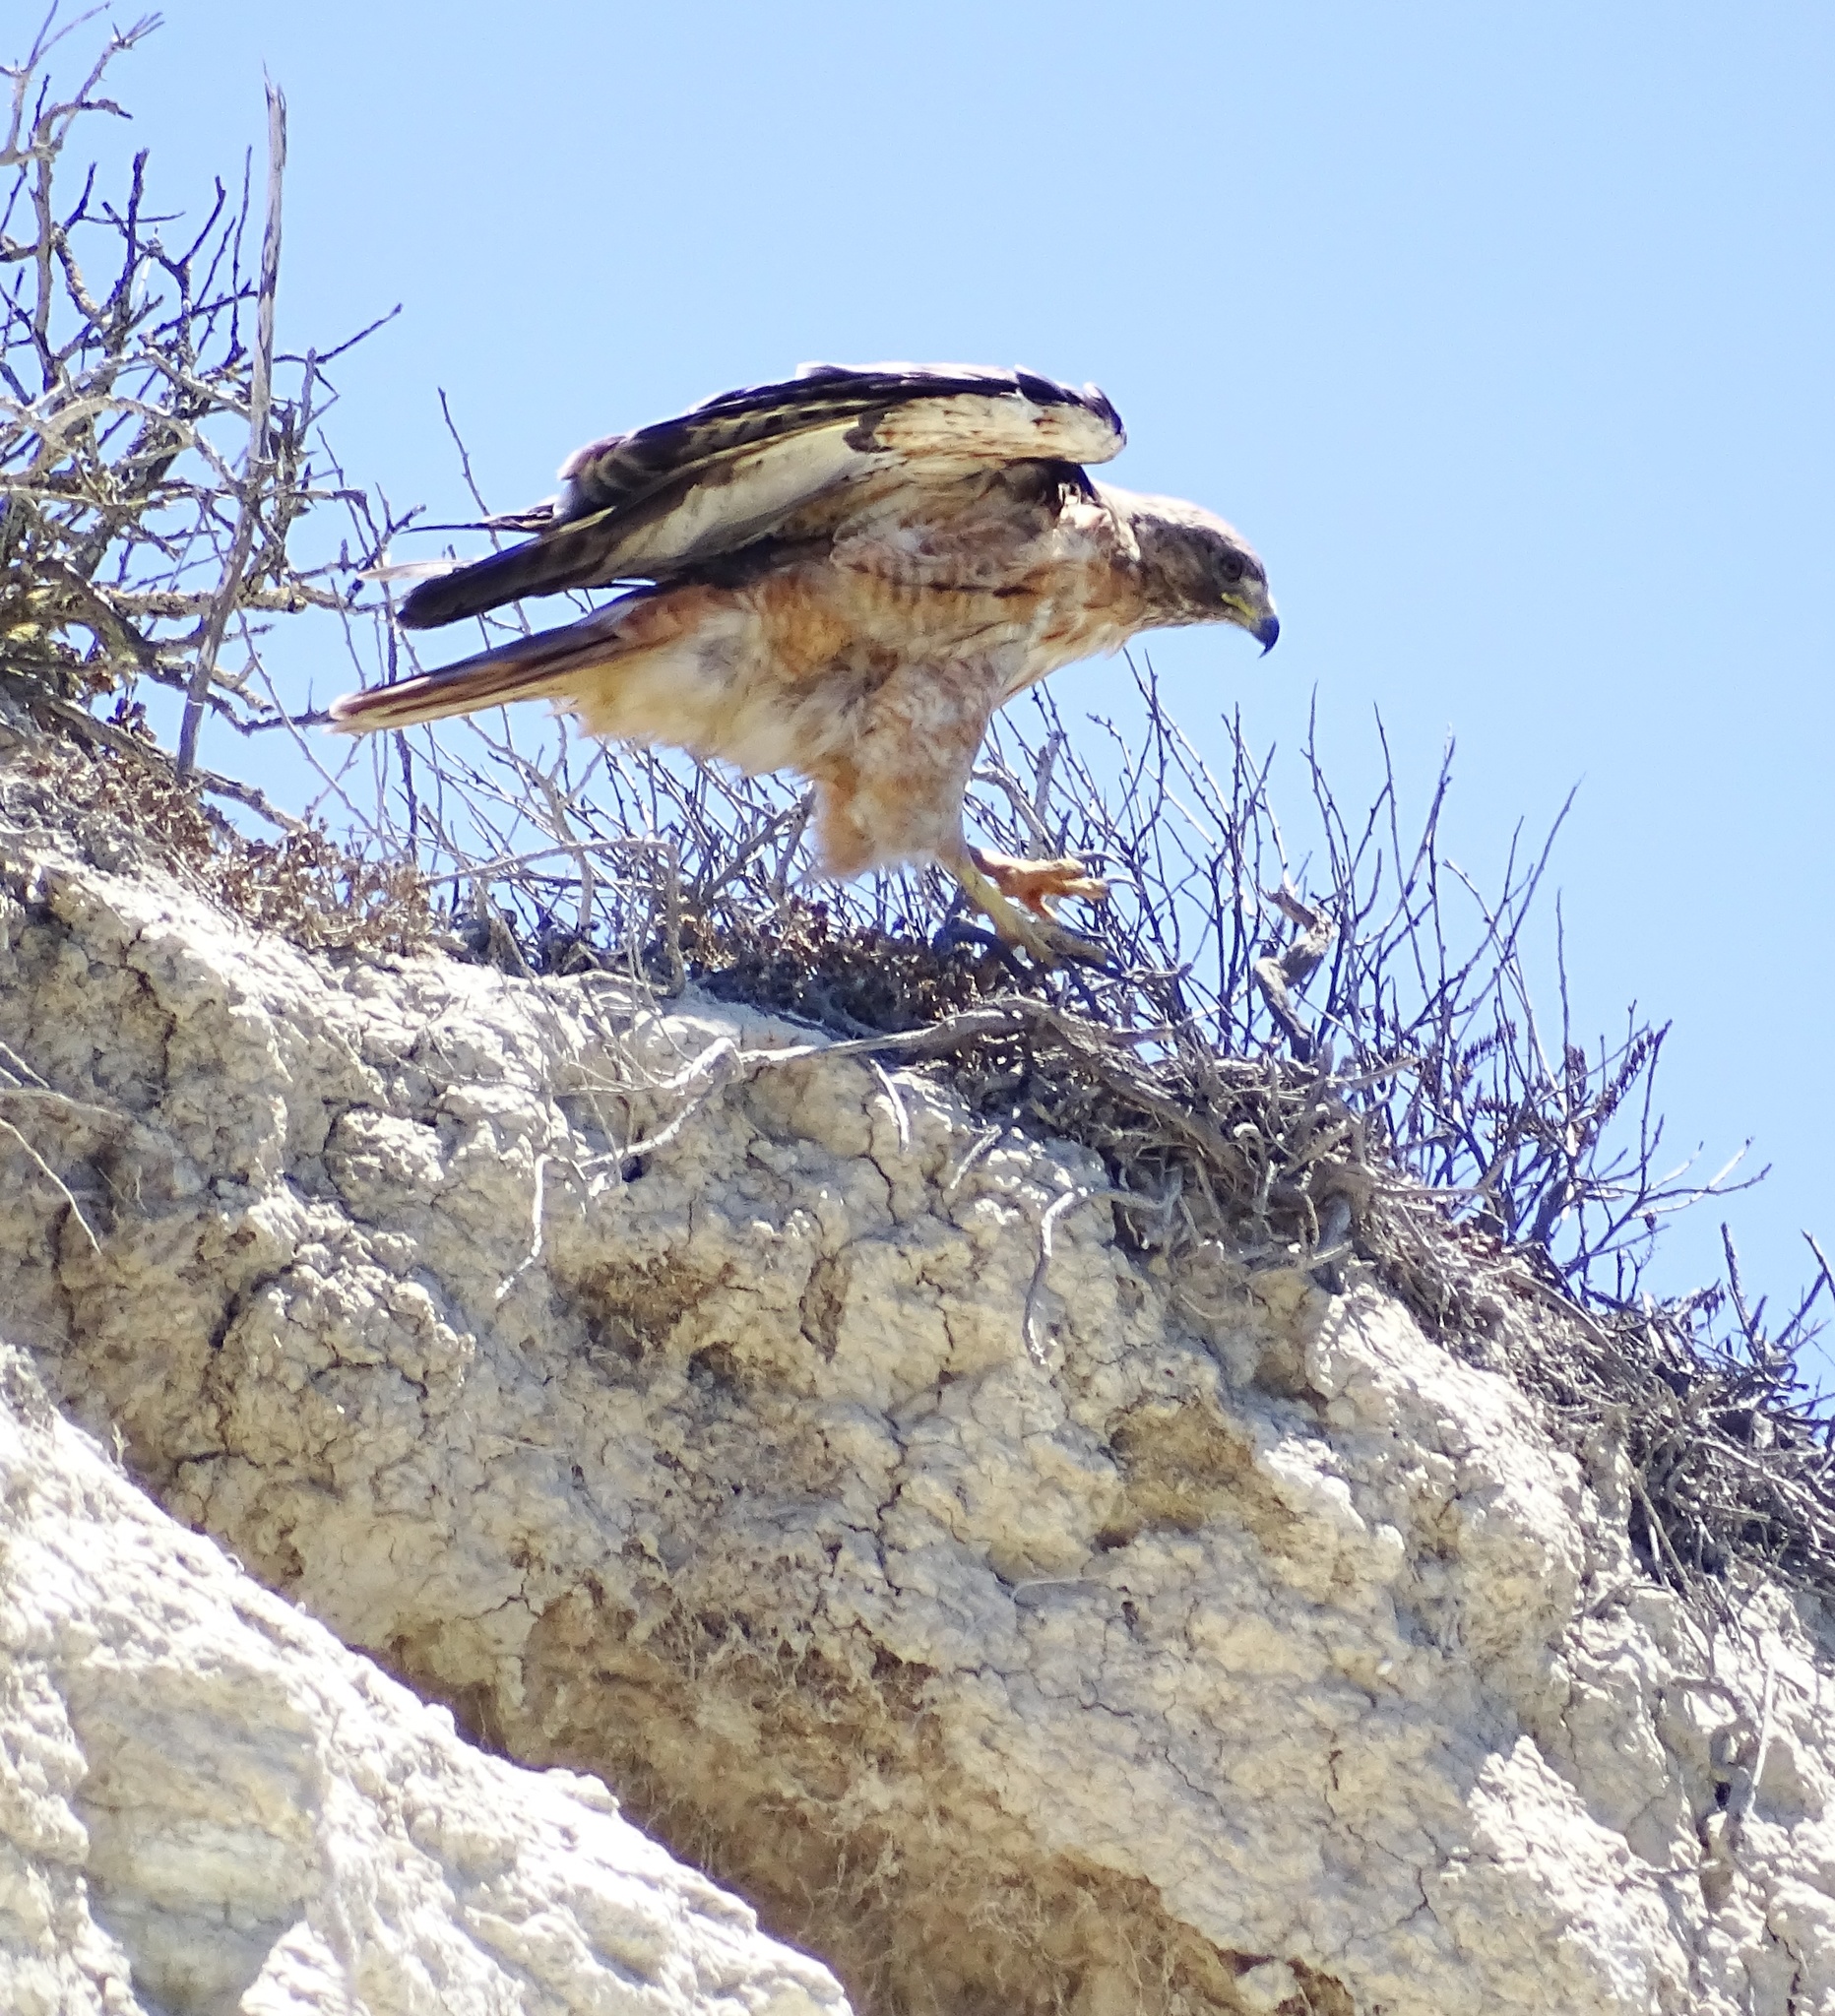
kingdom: Animalia
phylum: Chordata
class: Aves
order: Accipitriformes
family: Accipitridae
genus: Buteo
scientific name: Buteo jamaicensis
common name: Red-tailed hawk
